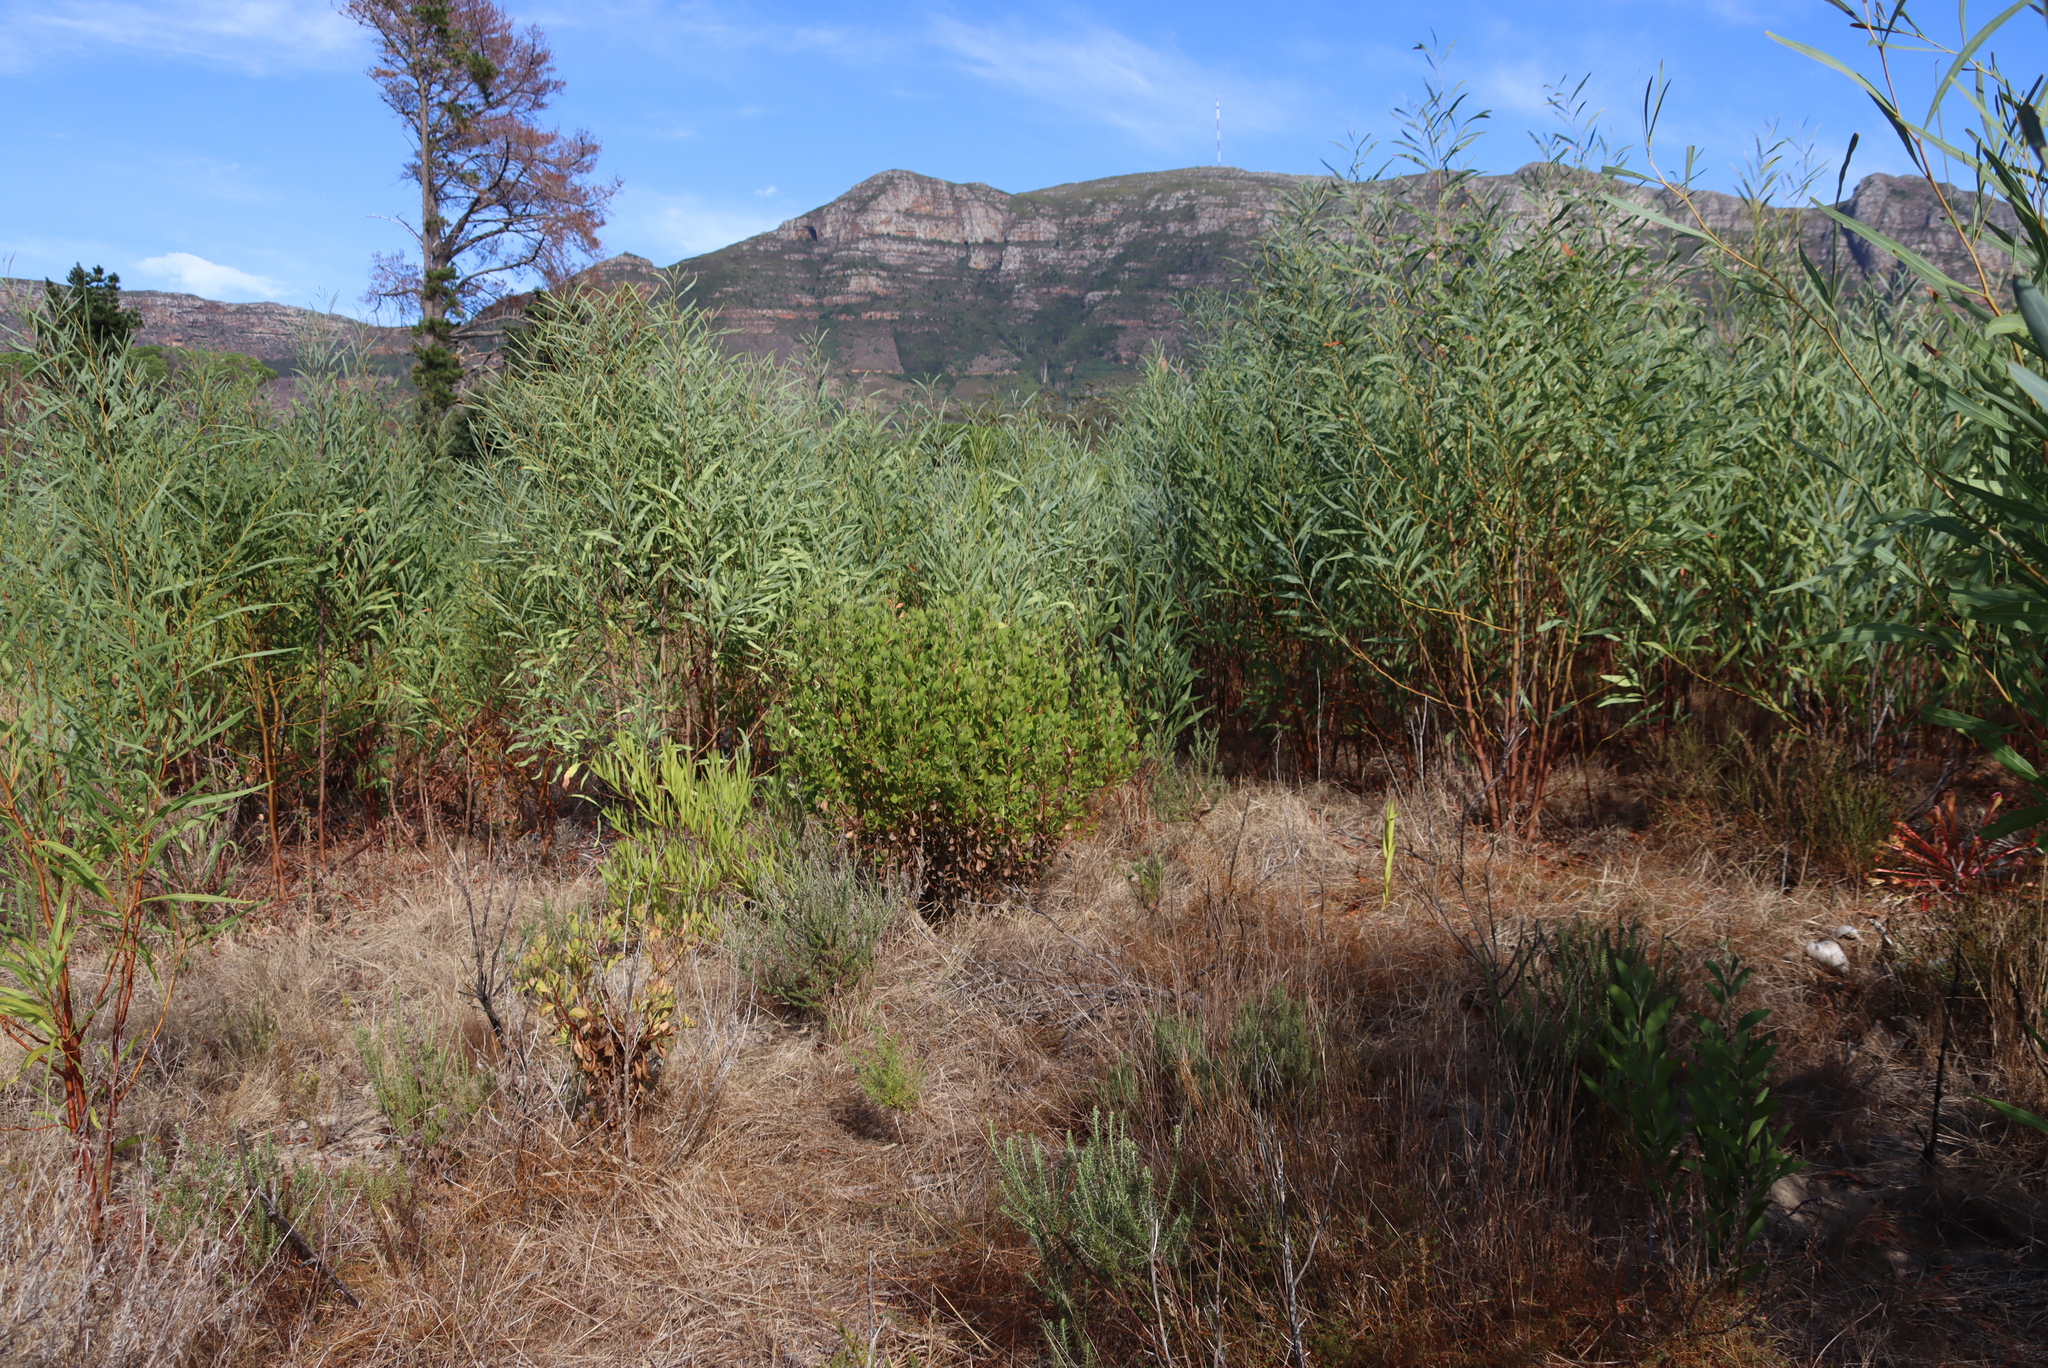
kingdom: Plantae
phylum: Tracheophyta
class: Magnoliopsida
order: Fabales
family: Fabaceae
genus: Acacia
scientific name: Acacia saligna
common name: Orange wattle
